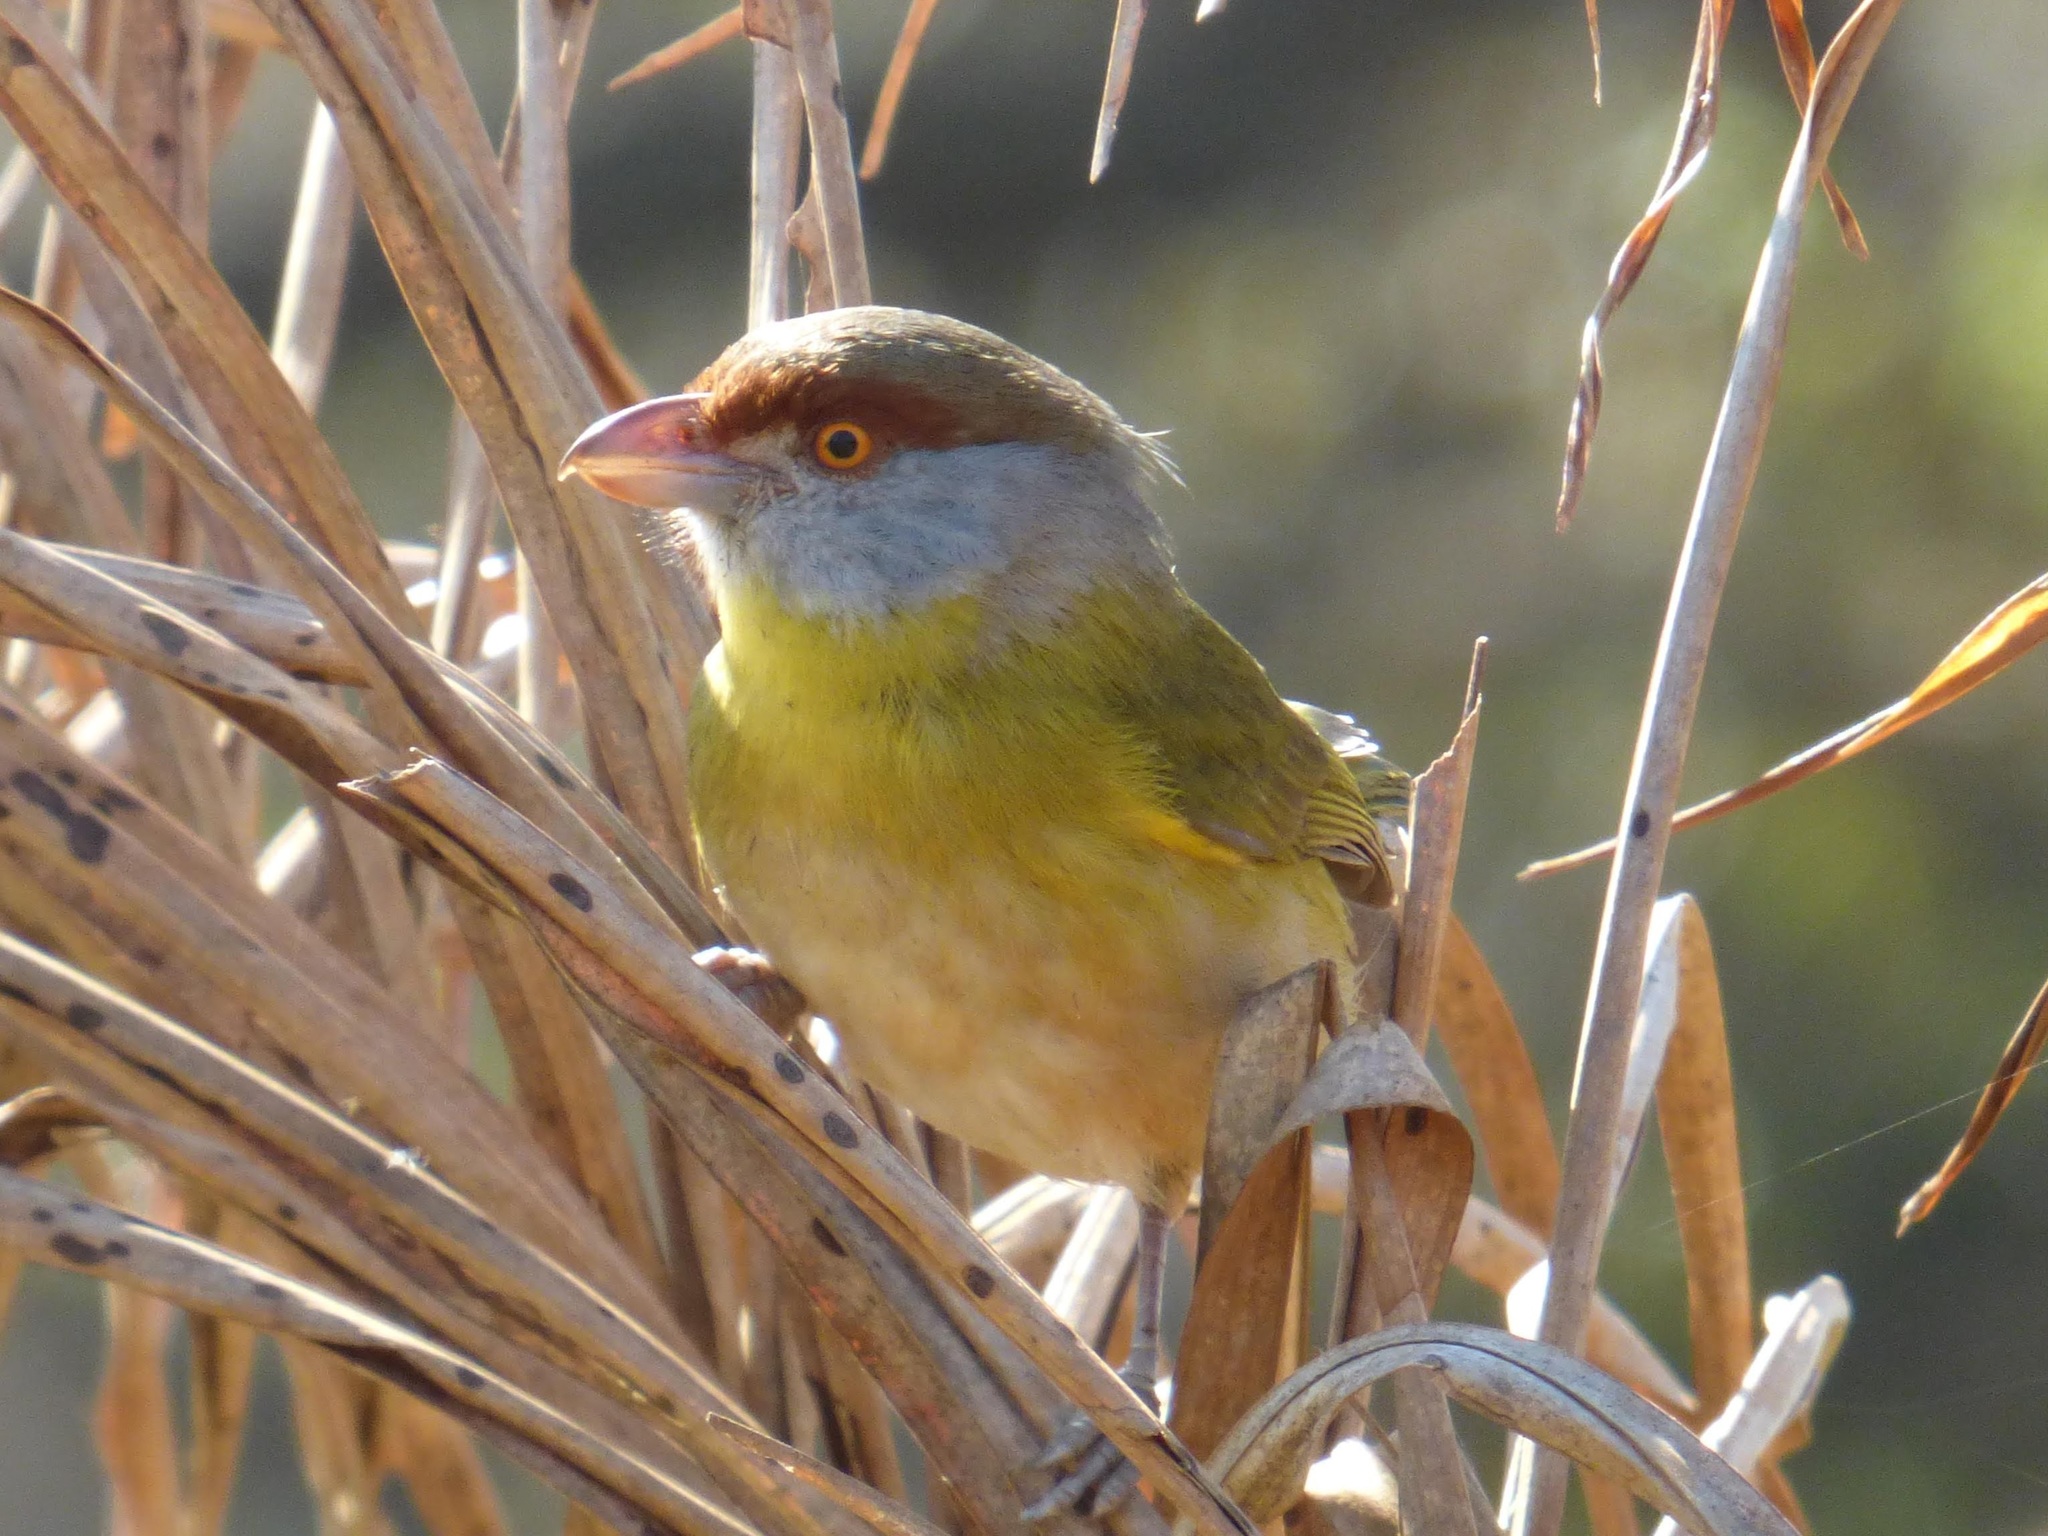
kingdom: Animalia
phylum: Chordata
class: Aves
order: Passeriformes
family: Vireonidae
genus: Cyclarhis
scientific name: Cyclarhis gujanensis
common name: Rufous-browed peppershrike
